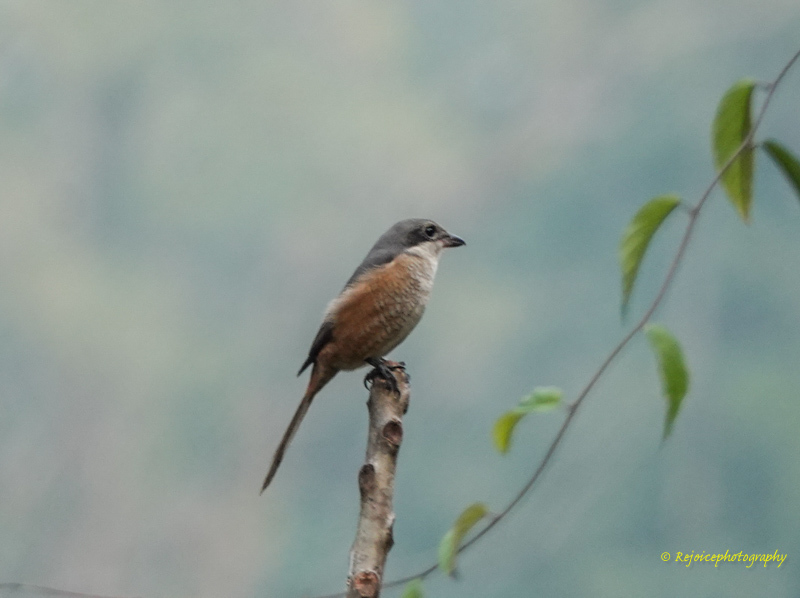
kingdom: Animalia
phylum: Chordata
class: Aves
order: Passeriformes
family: Laniidae
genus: Lanius
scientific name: Lanius tephronotus
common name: Grey-backed shrike
